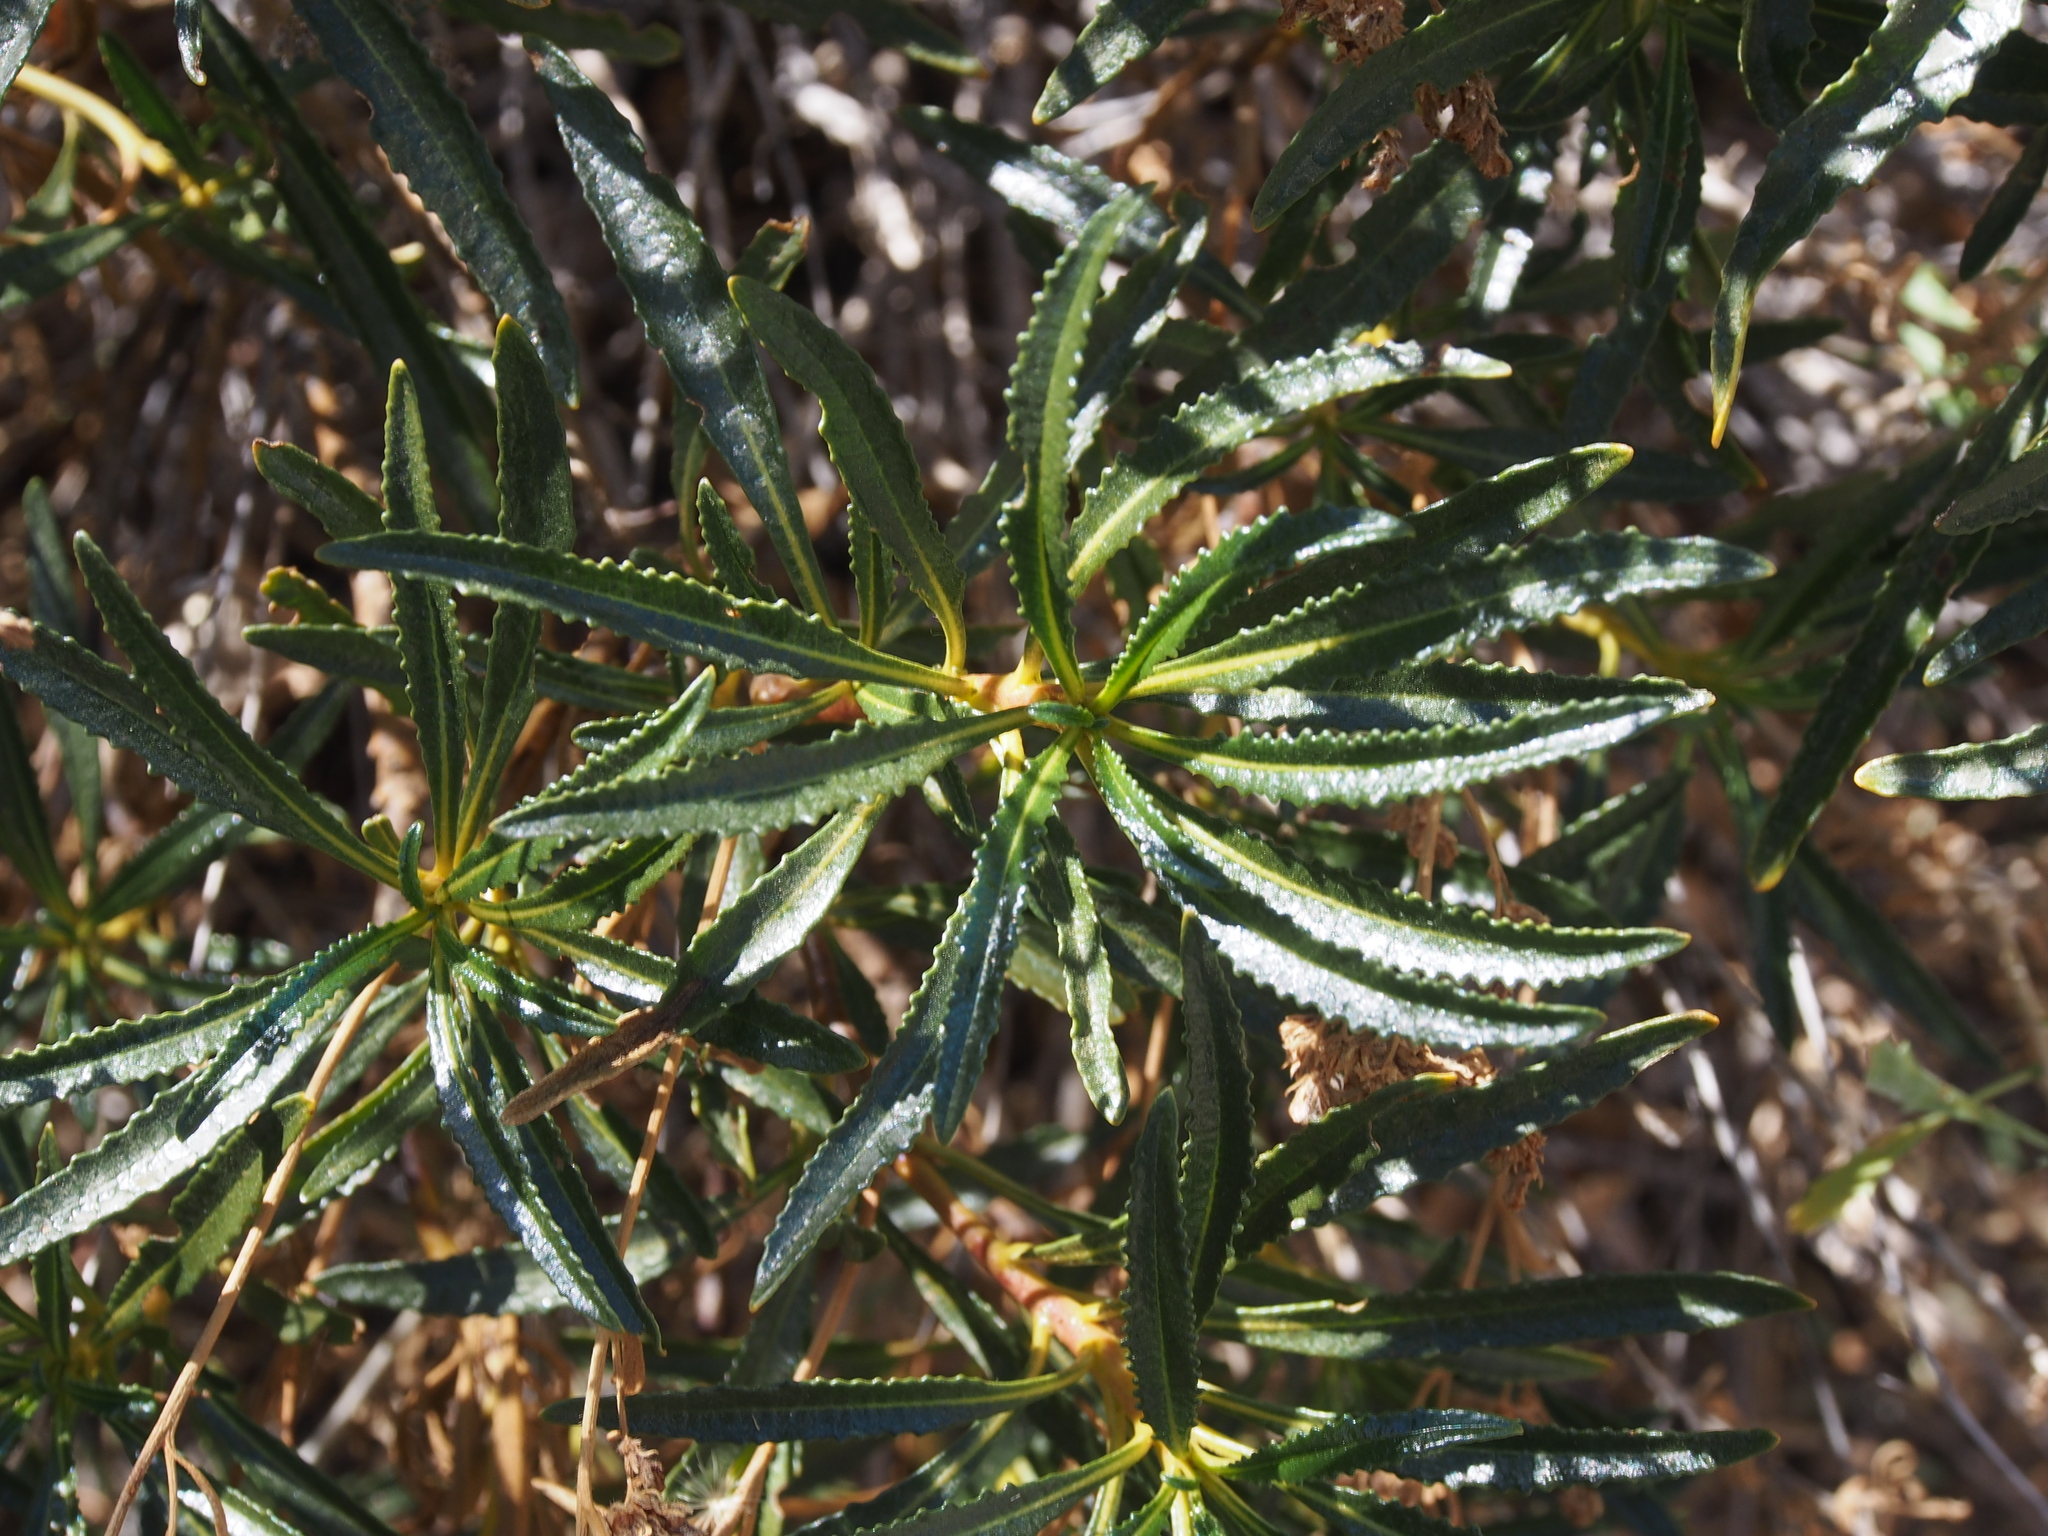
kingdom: Plantae
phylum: Tracheophyta
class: Magnoliopsida
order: Boraginales
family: Namaceae
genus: Eriodictyon
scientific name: Eriodictyon trichocalyx
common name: Hairy yerba-santa
